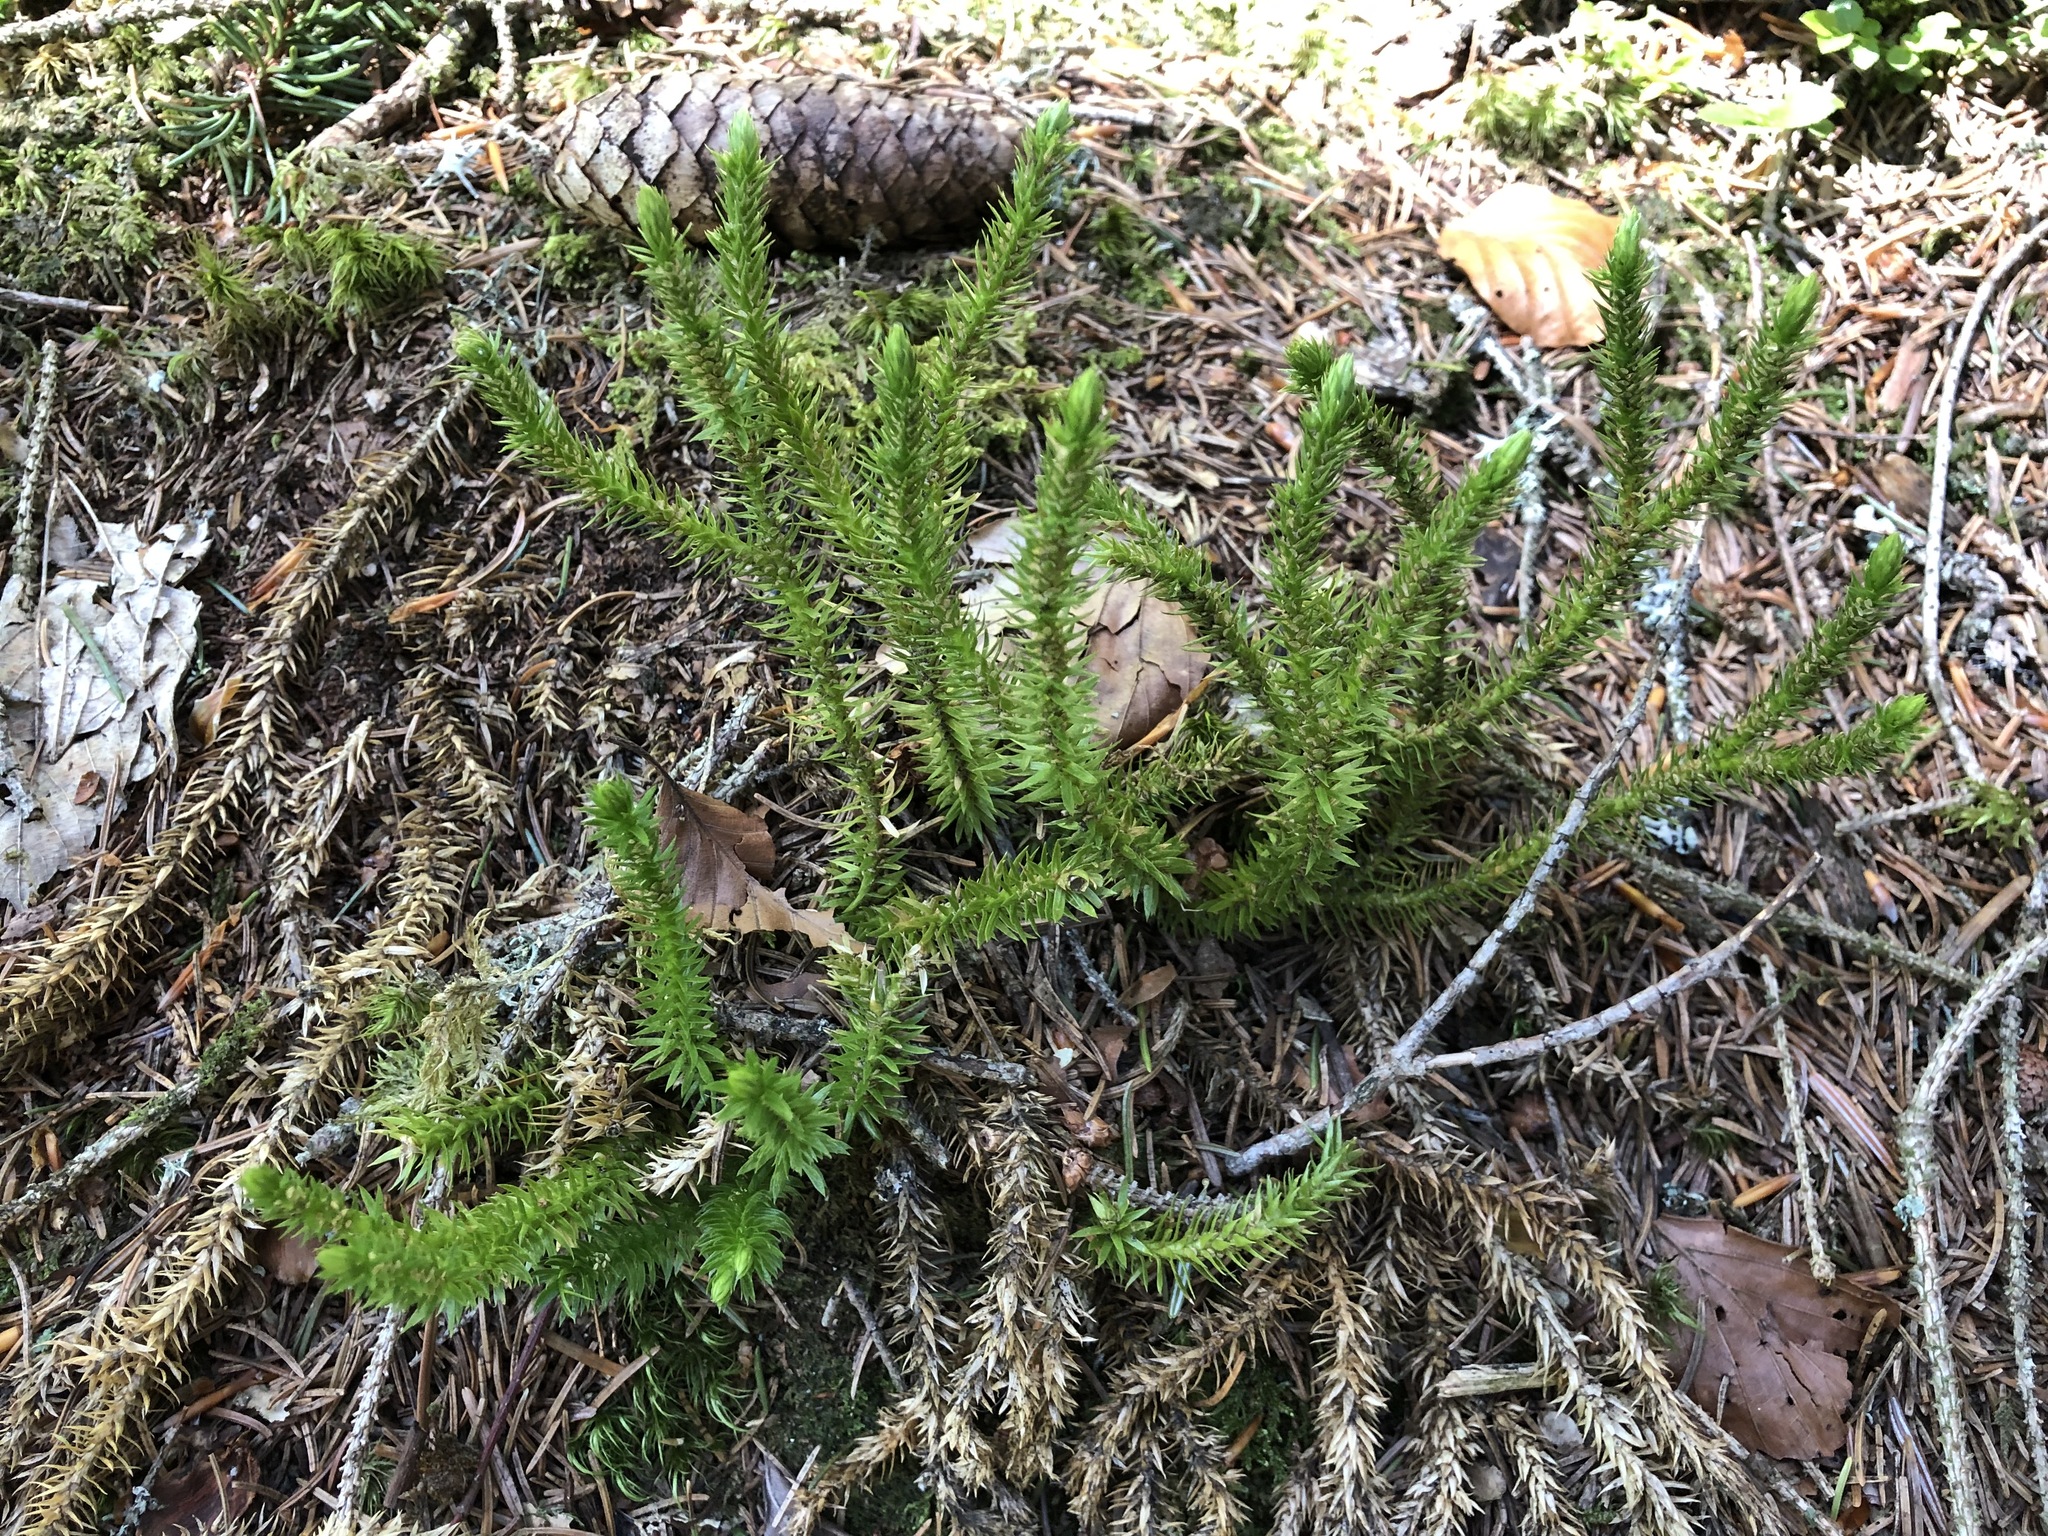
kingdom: Plantae
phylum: Tracheophyta
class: Lycopodiopsida
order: Lycopodiales
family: Lycopodiaceae
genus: Huperzia
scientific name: Huperzia selago
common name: Northern firmoss
